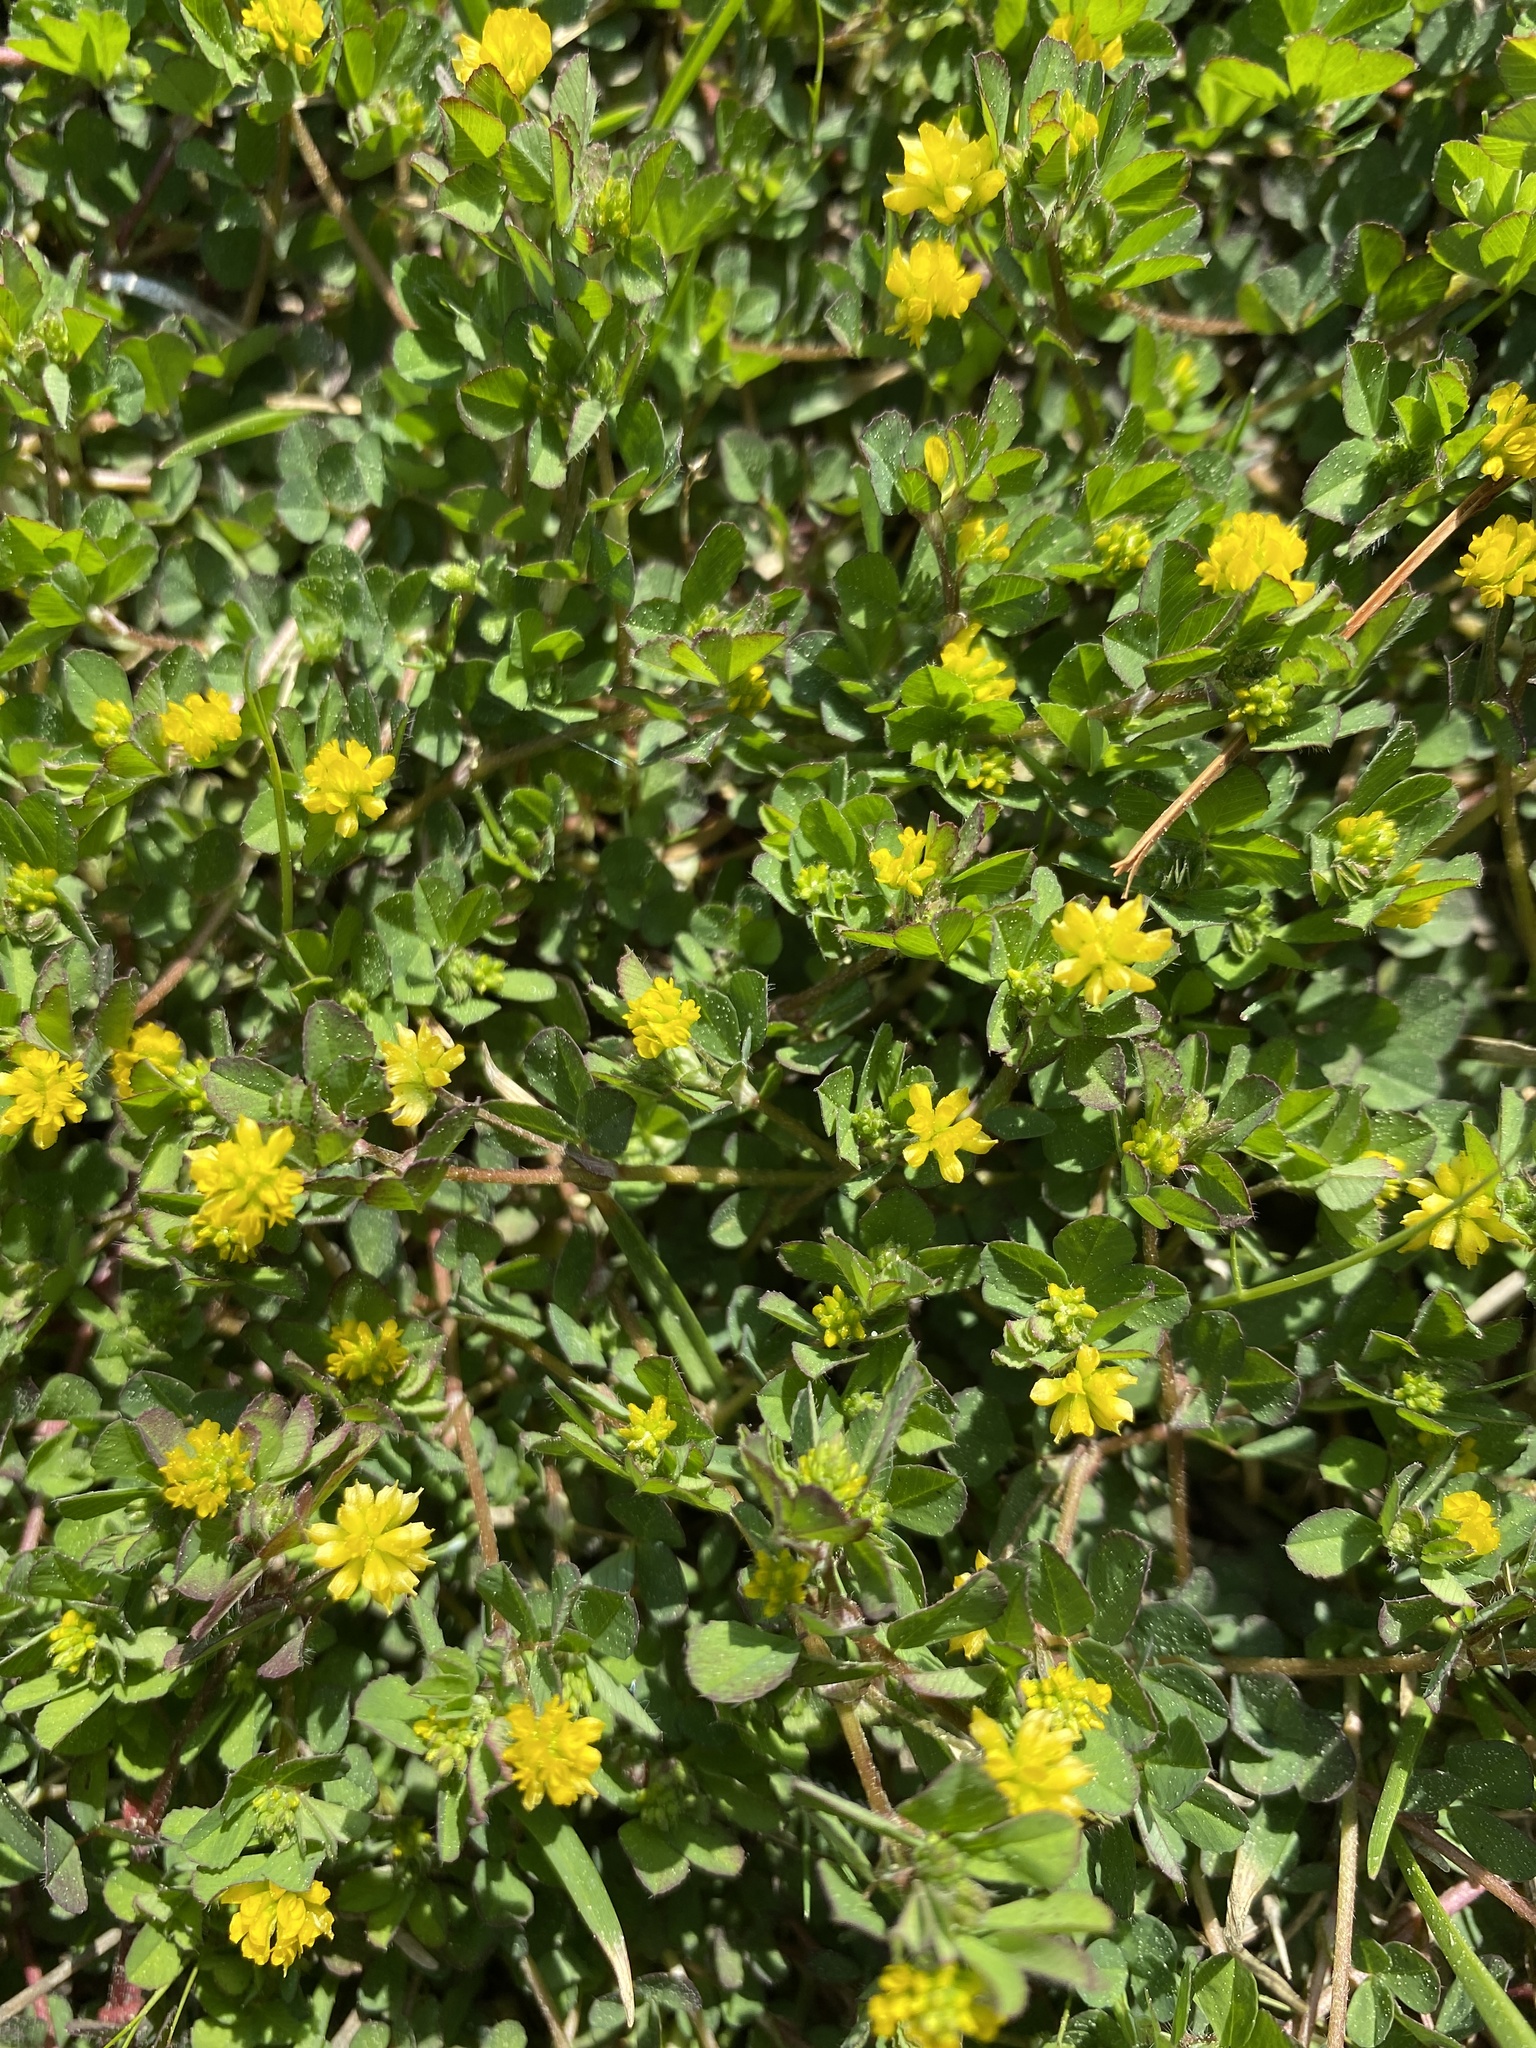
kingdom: Plantae
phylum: Tracheophyta
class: Magnoliopsida
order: Fabales
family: Fabaceae
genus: Trifolium
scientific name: Trifolium dubium
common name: Suckling clover
